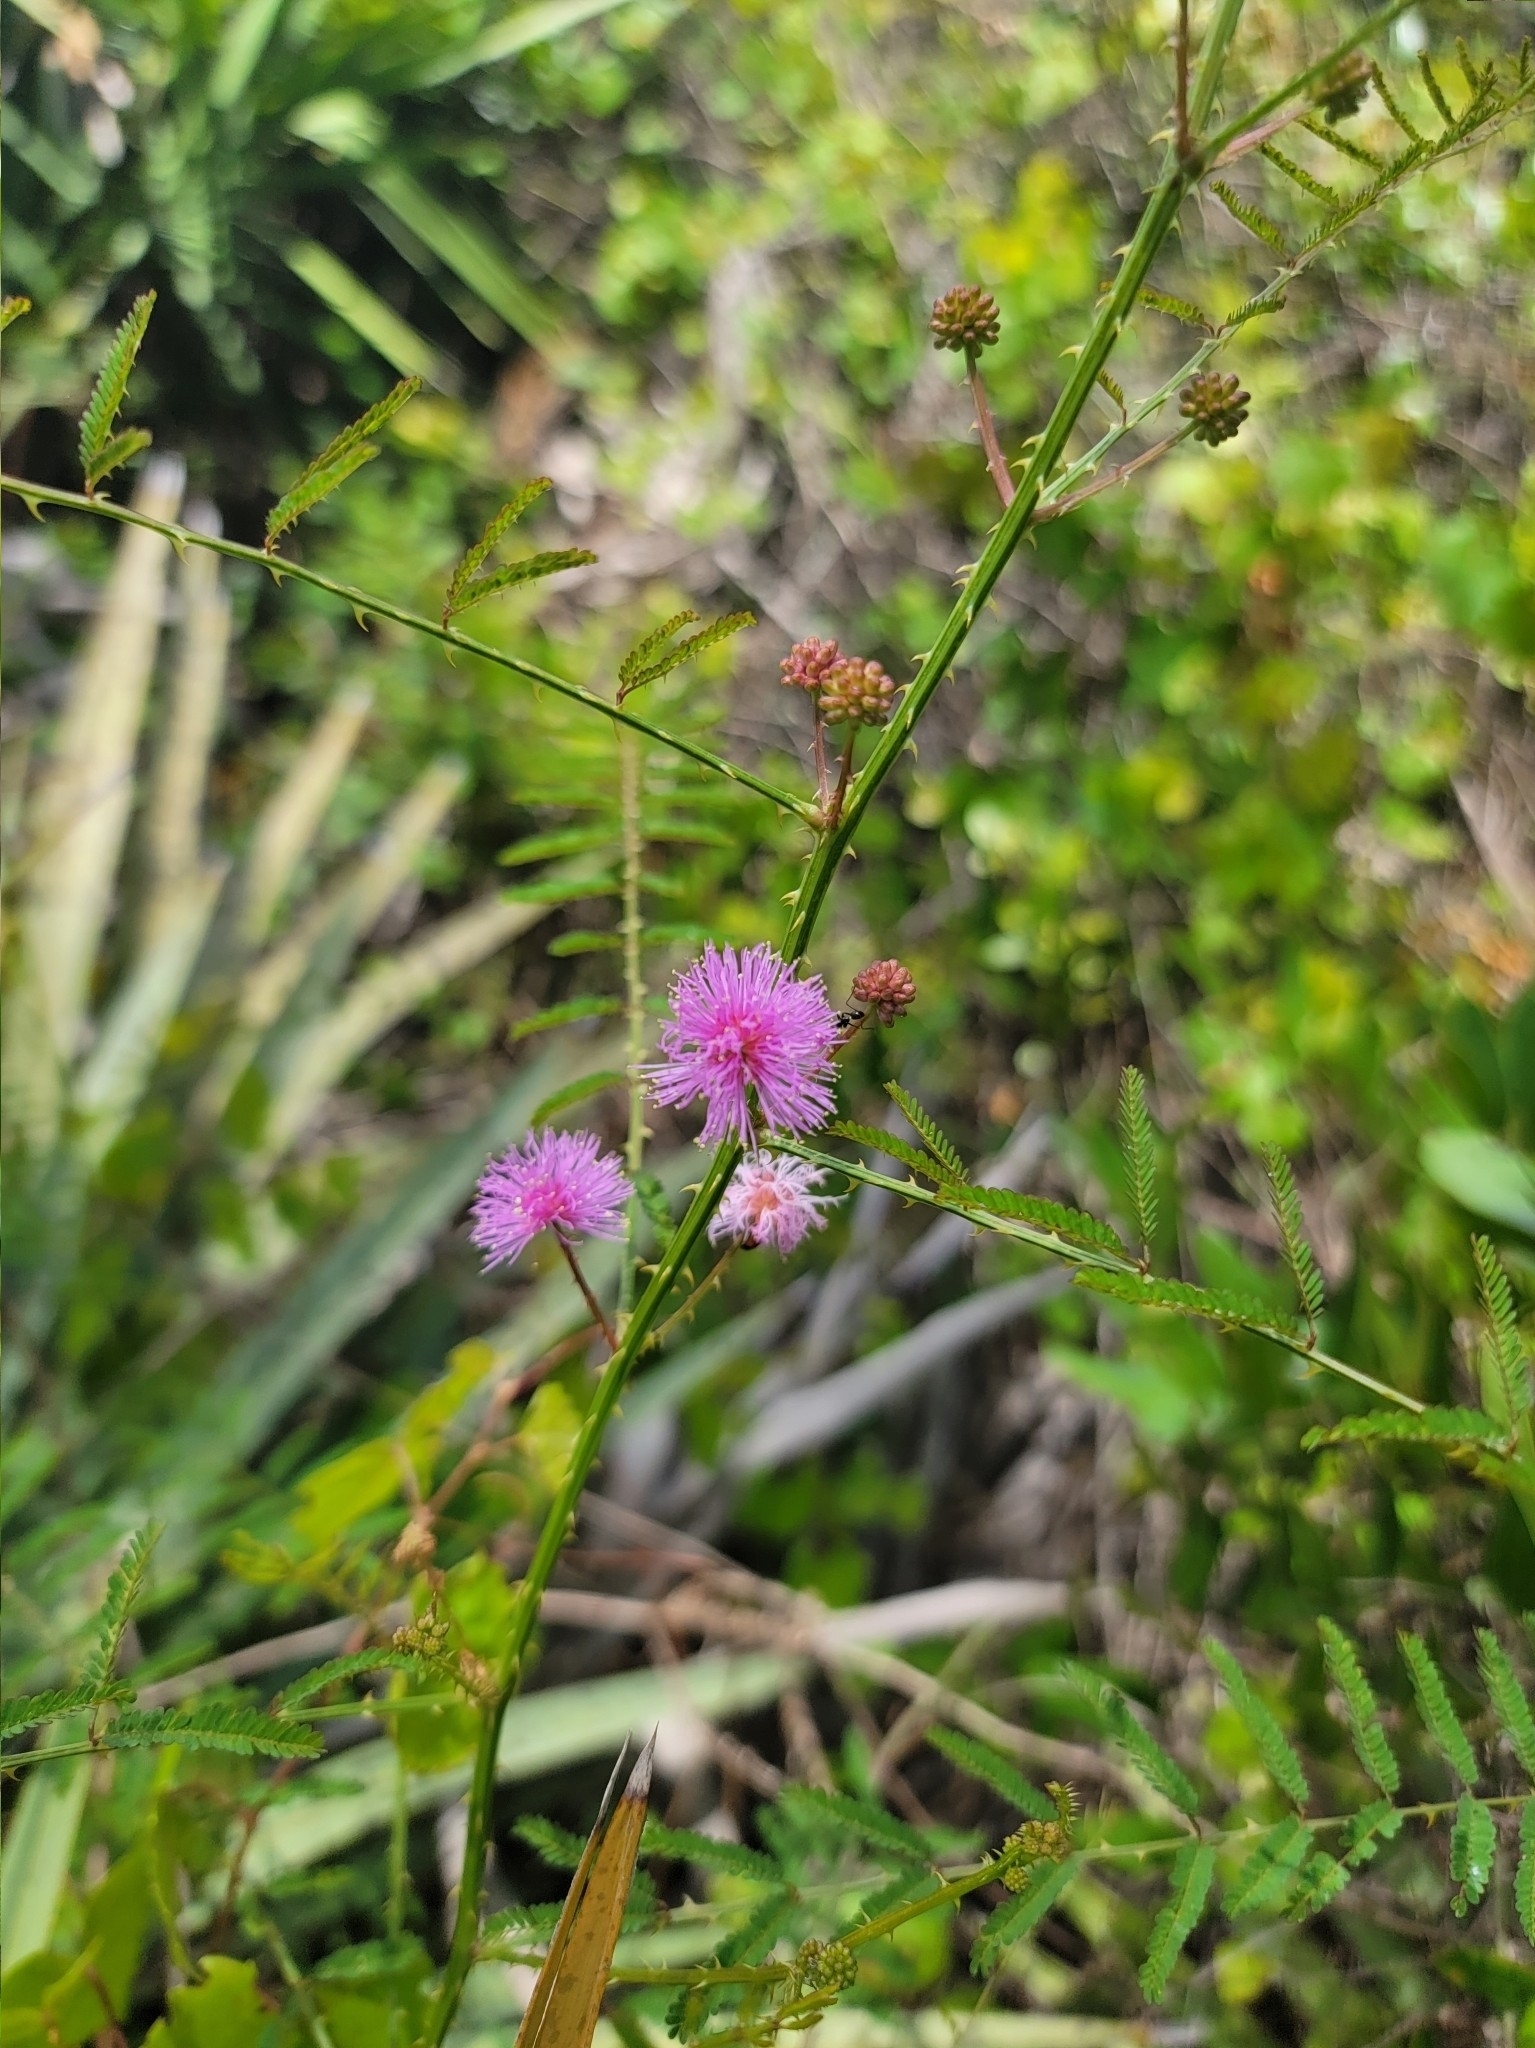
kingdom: Plantae
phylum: Tracheophyta
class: Magnoliopsida
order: Fabales
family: Fabaceae
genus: Mimosa
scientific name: Mimosa quadrivalvis
